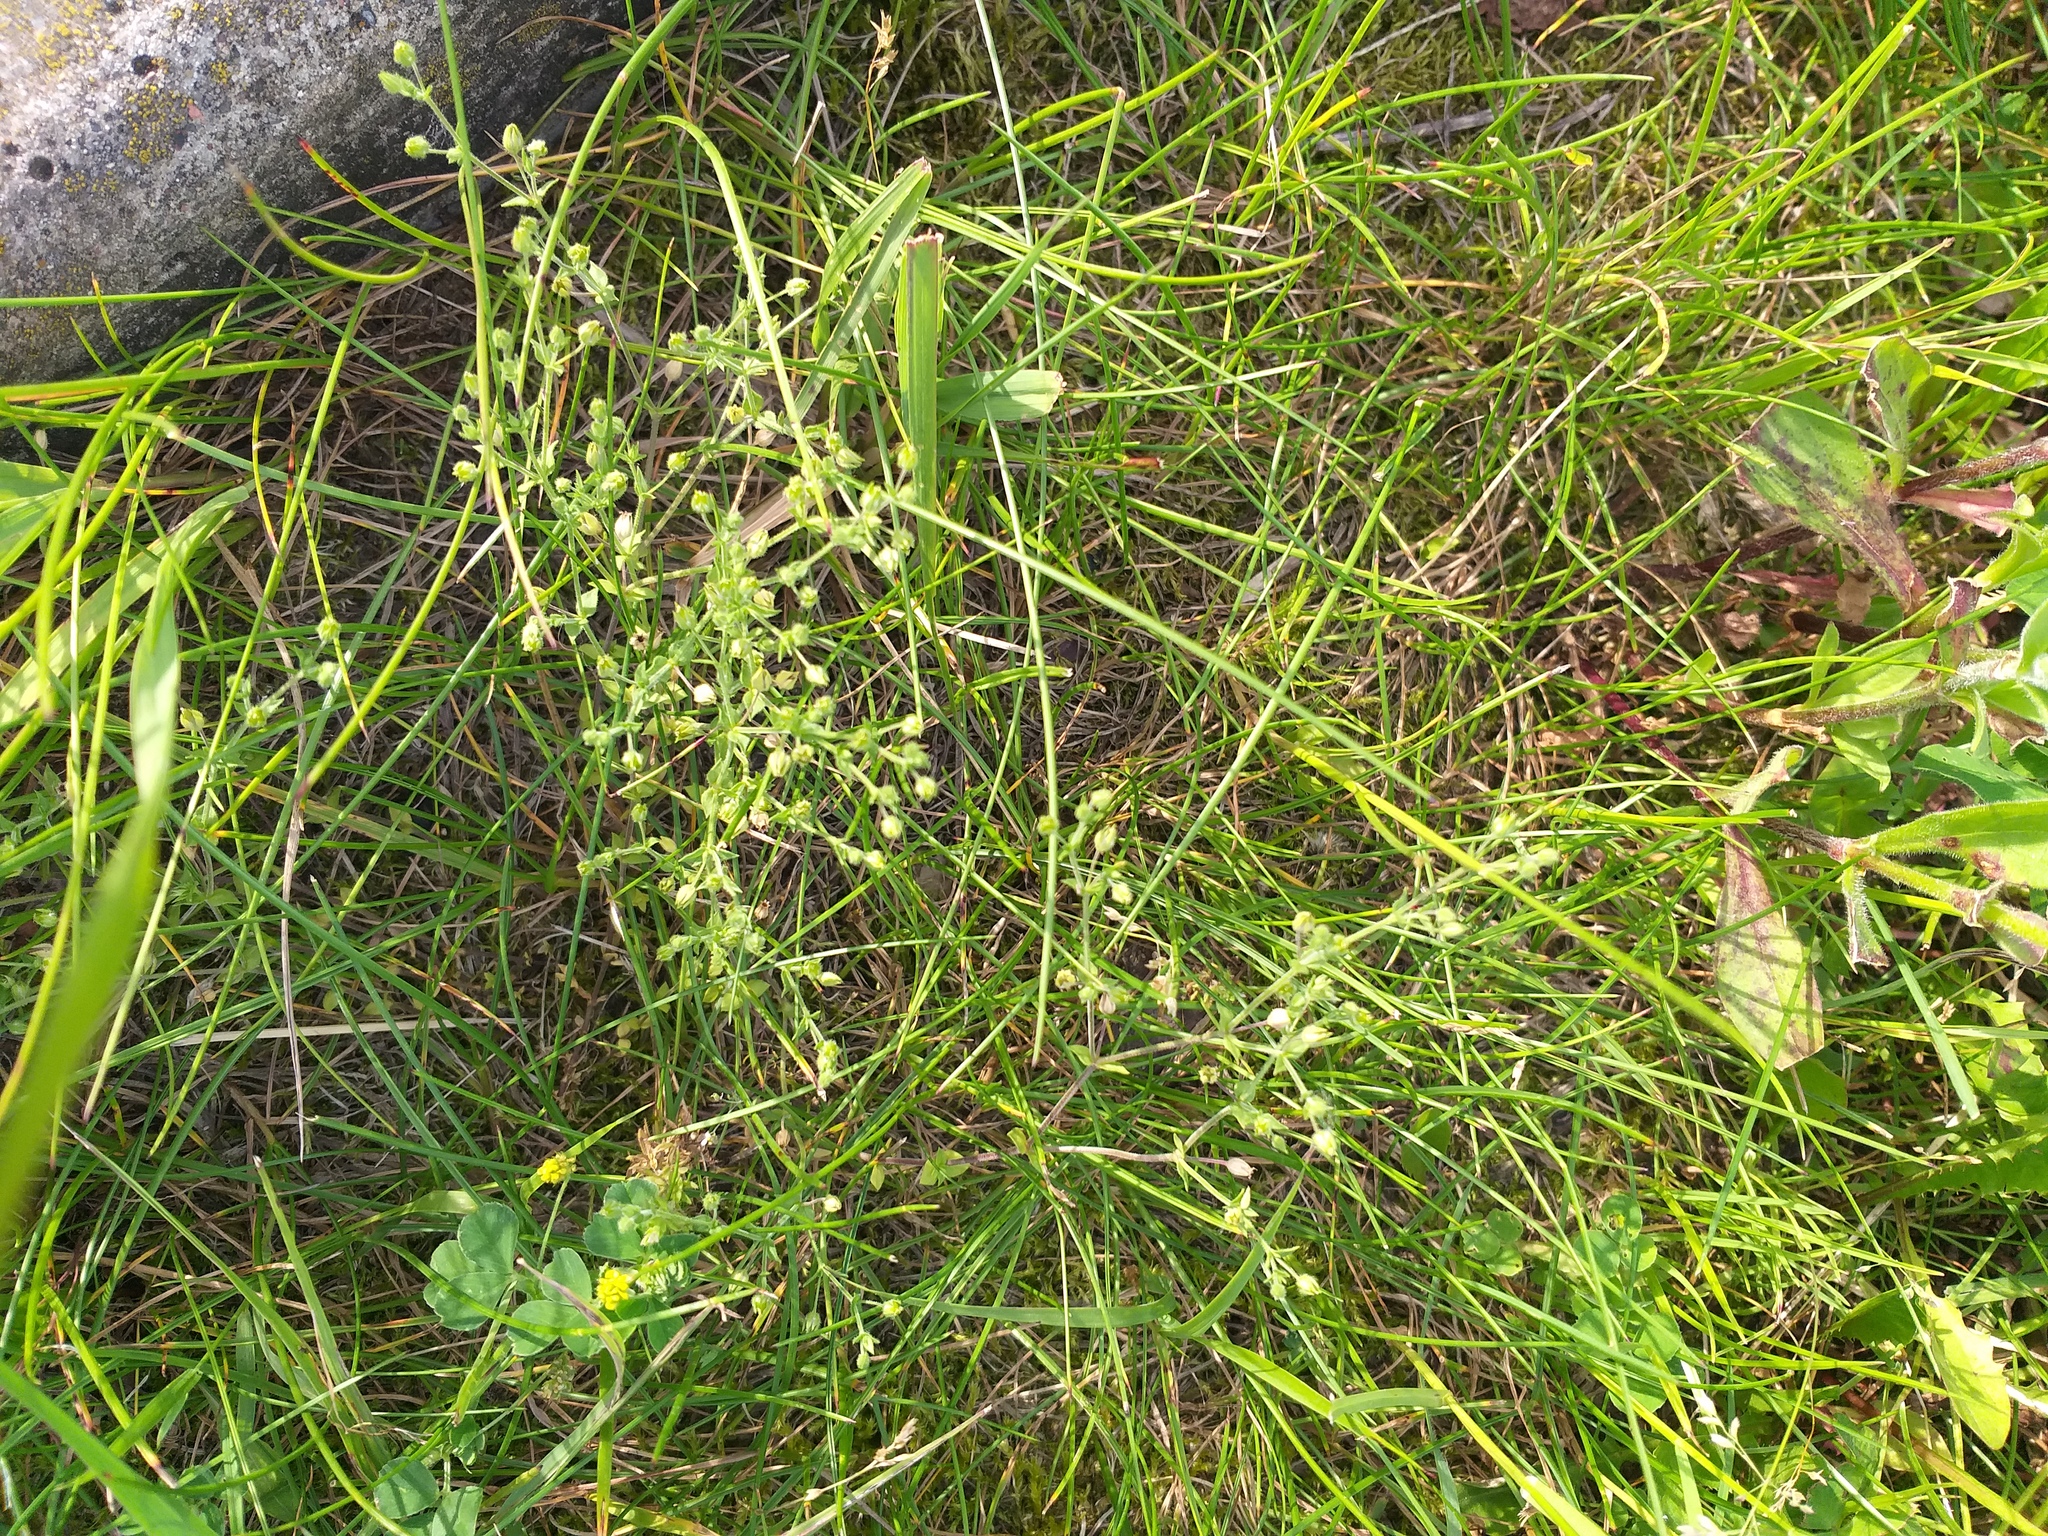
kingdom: Plantae
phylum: Tracheophyta
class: Magnoliopsida
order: Caryophyllales
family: Caryophyllaceae
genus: Arenaria
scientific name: Arenaria serpyllifolia
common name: Thyme-leaved sandwort
